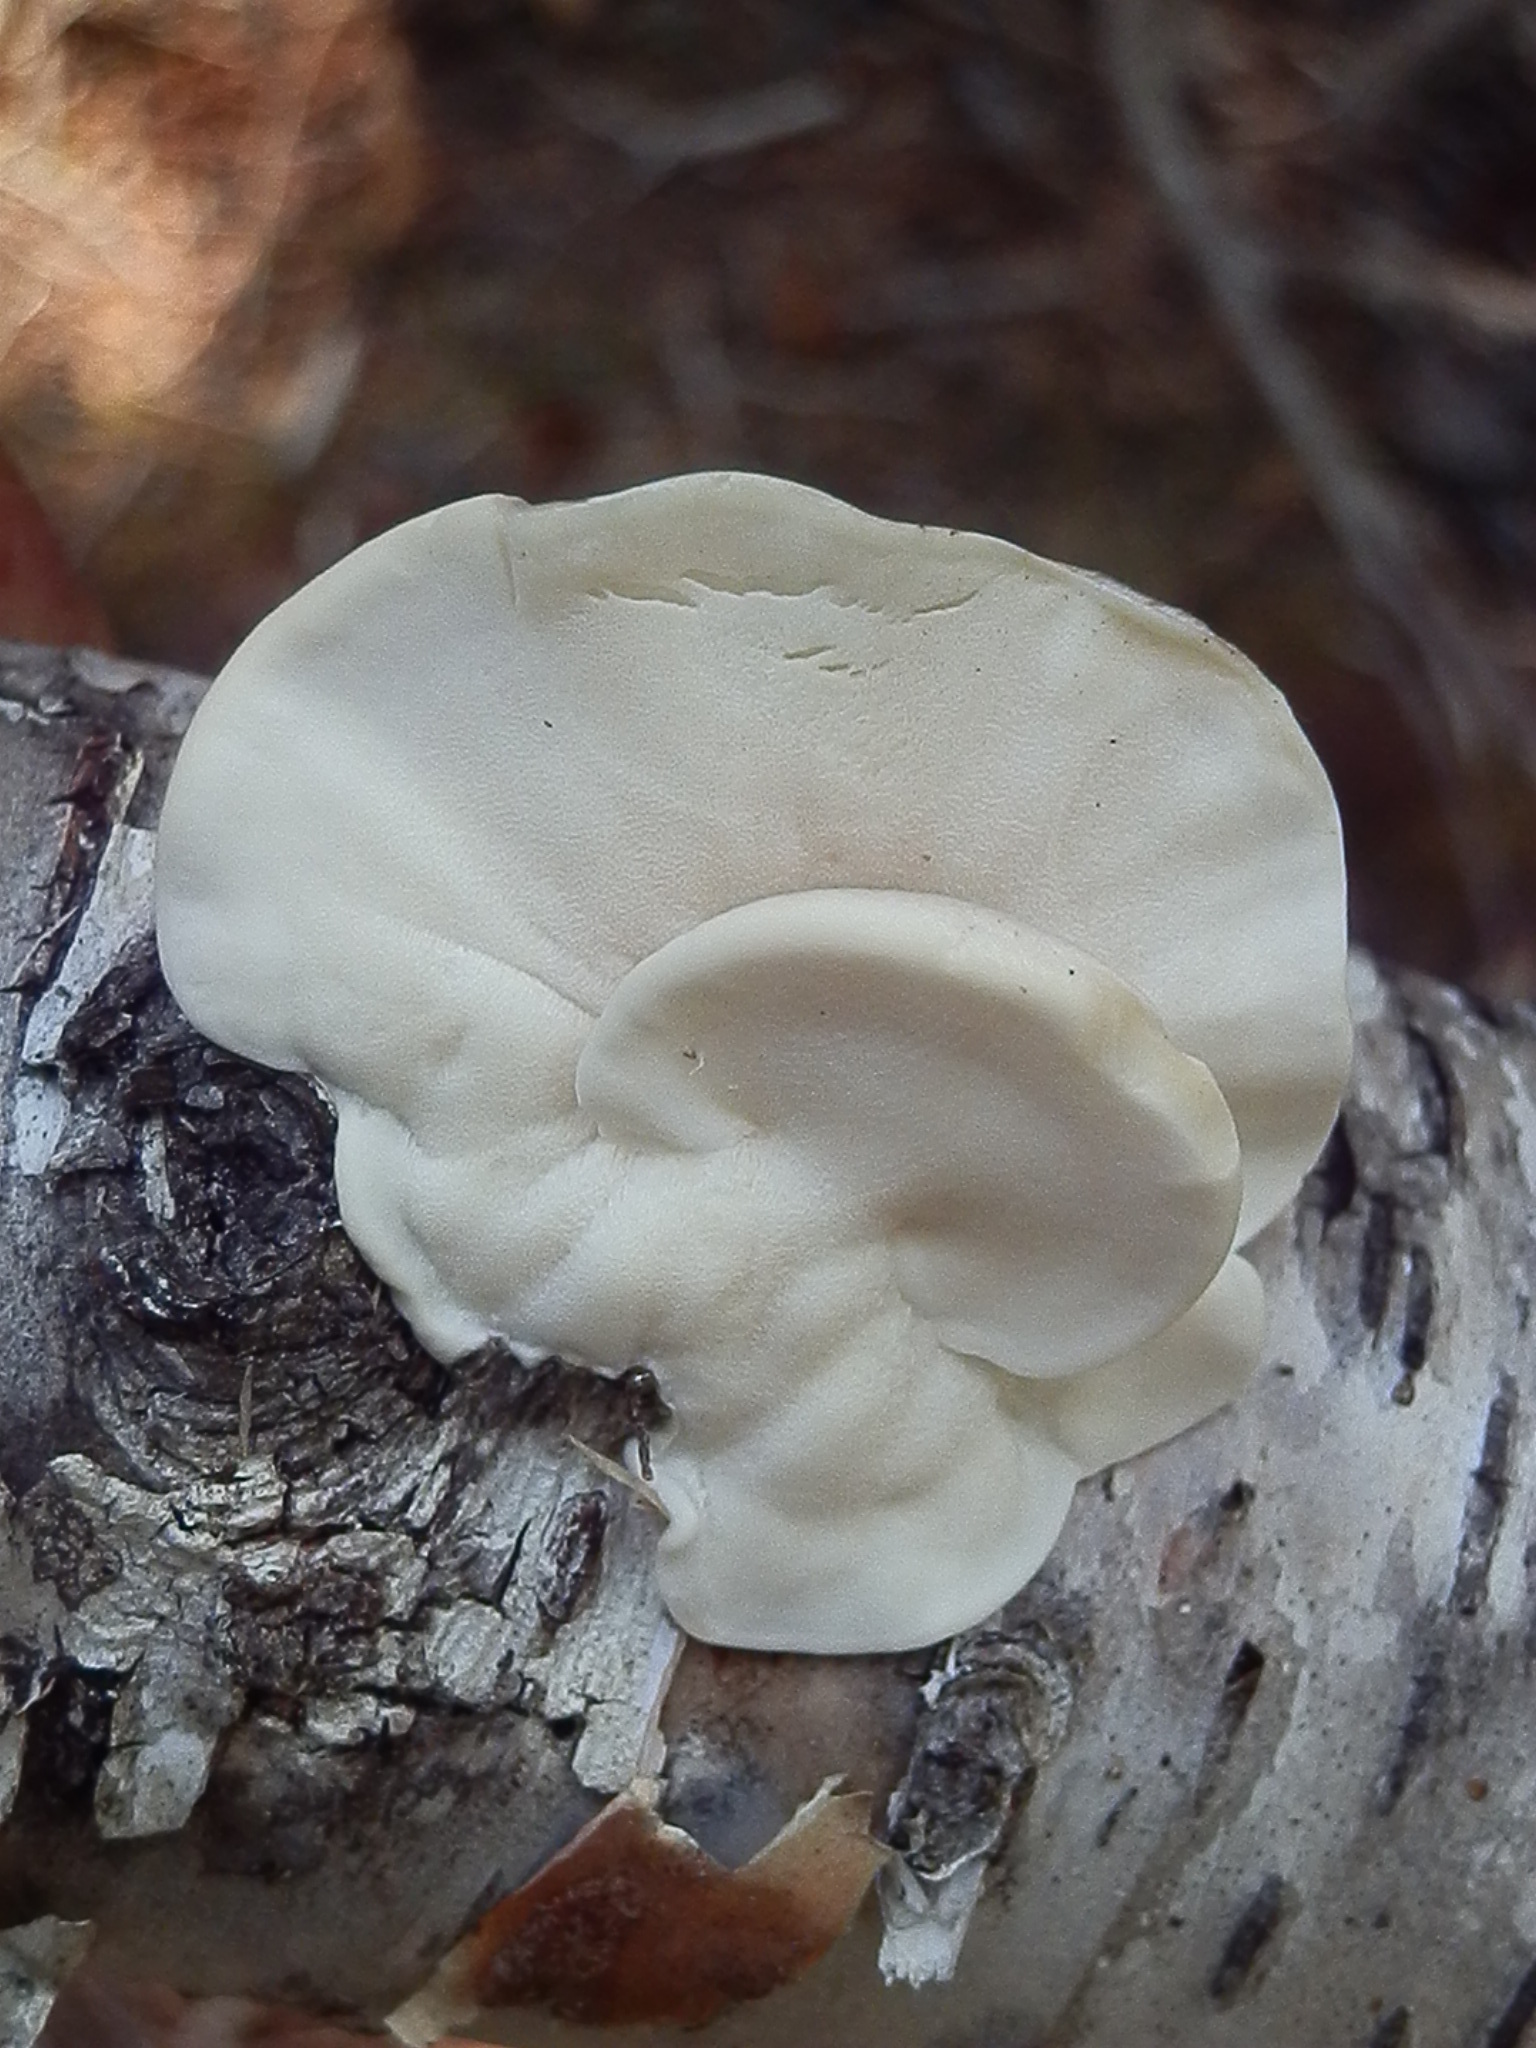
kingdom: Fungi
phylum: Basidiomycota
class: Agaricomycetes
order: Polyporales
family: Incrustoporiaceae
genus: Tyromyces
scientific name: Tyromyces chioneus
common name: White cheese polypore
